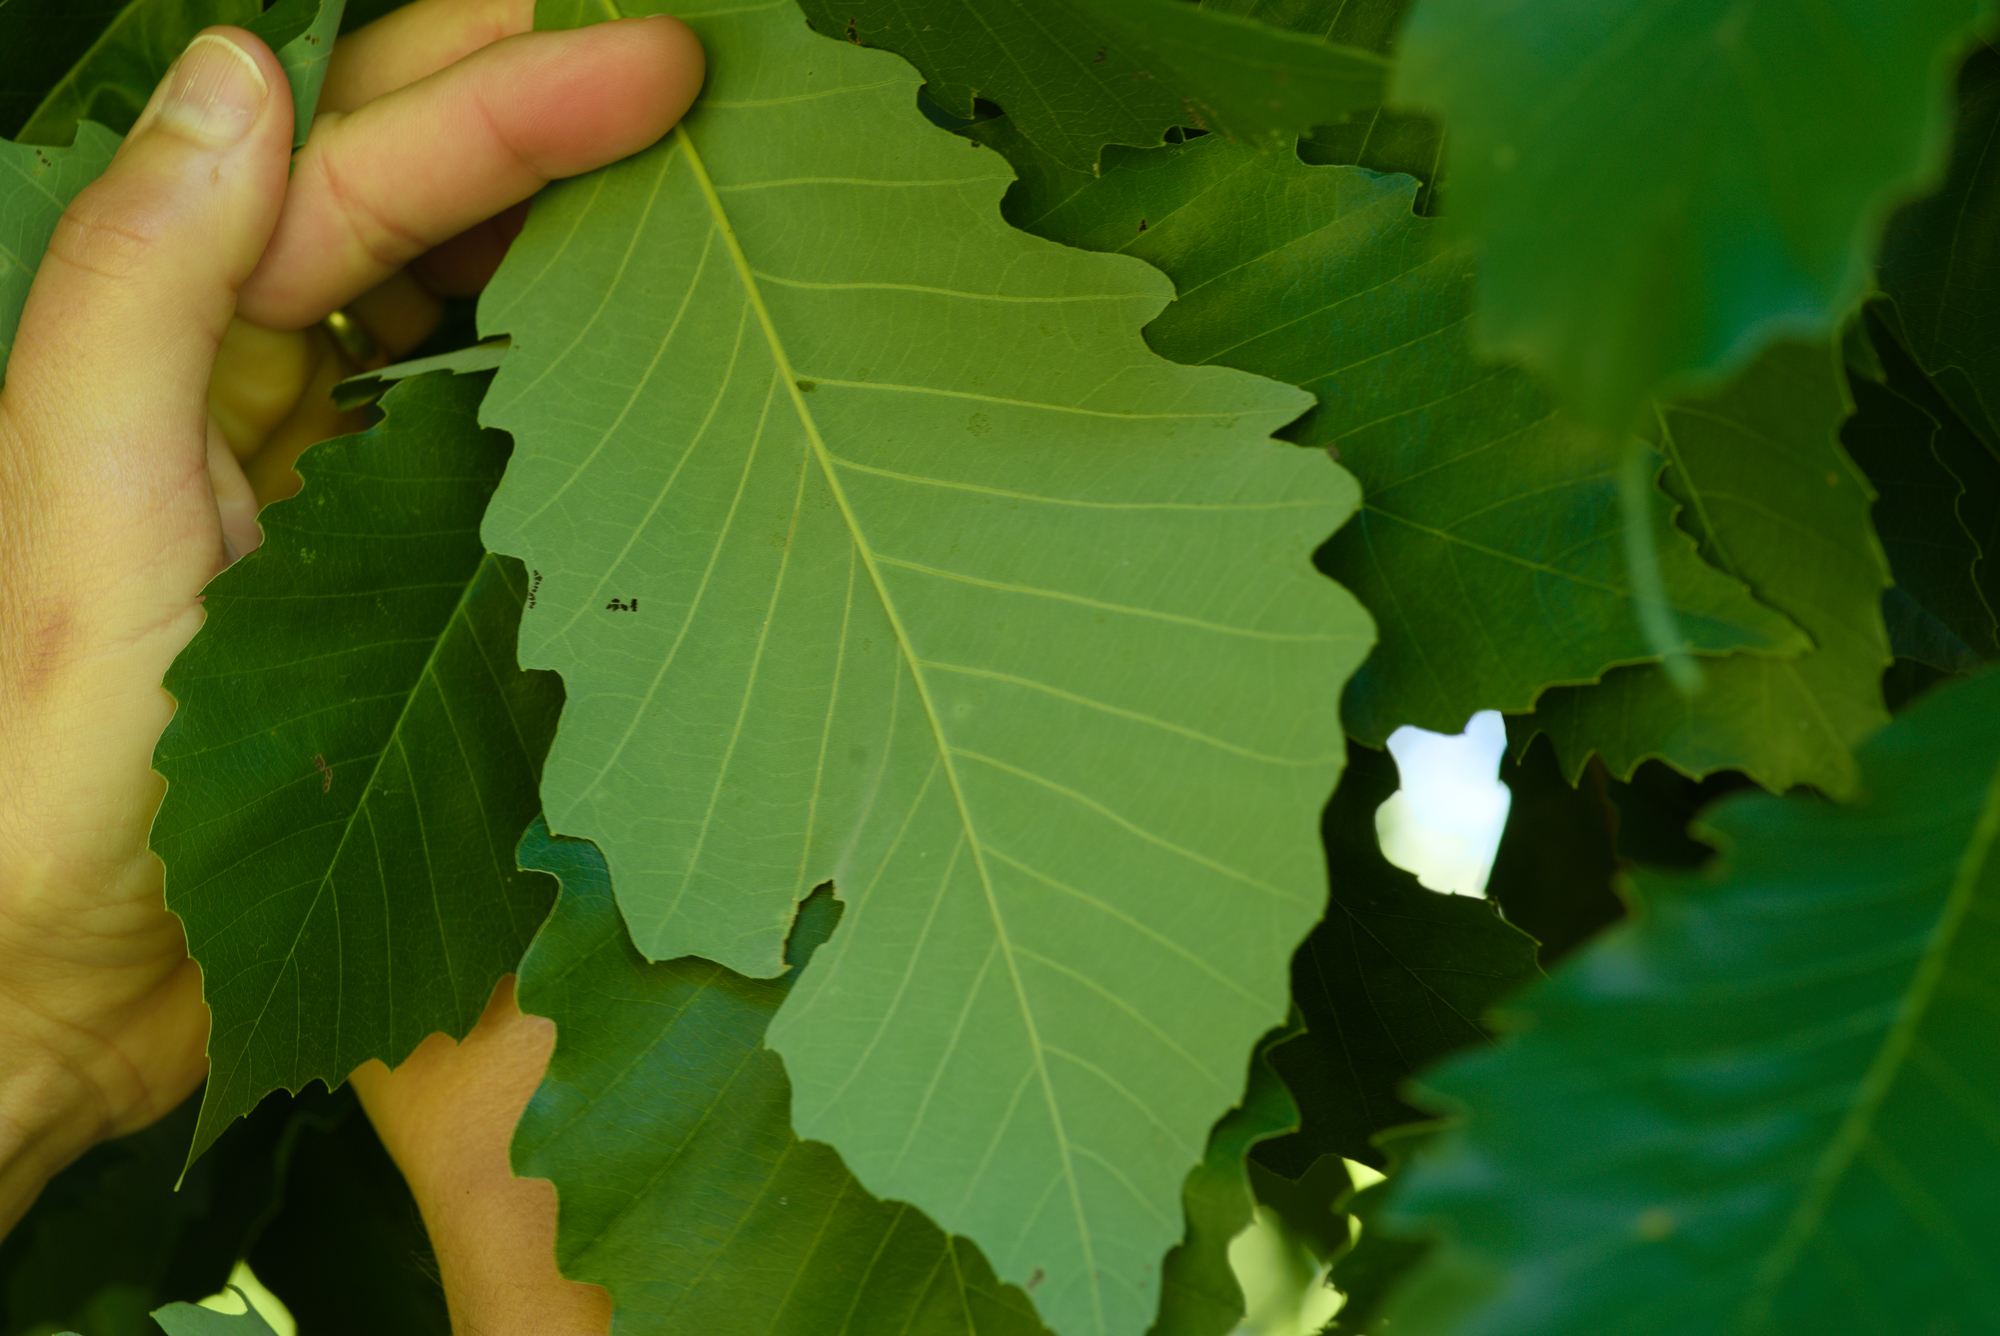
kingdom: Plantae
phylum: Tracheophyta
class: Magnoliopsida
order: Fagales
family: Fagaceae
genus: Quercus
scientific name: Quercus muehlenbergii
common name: Chinkapin oak
